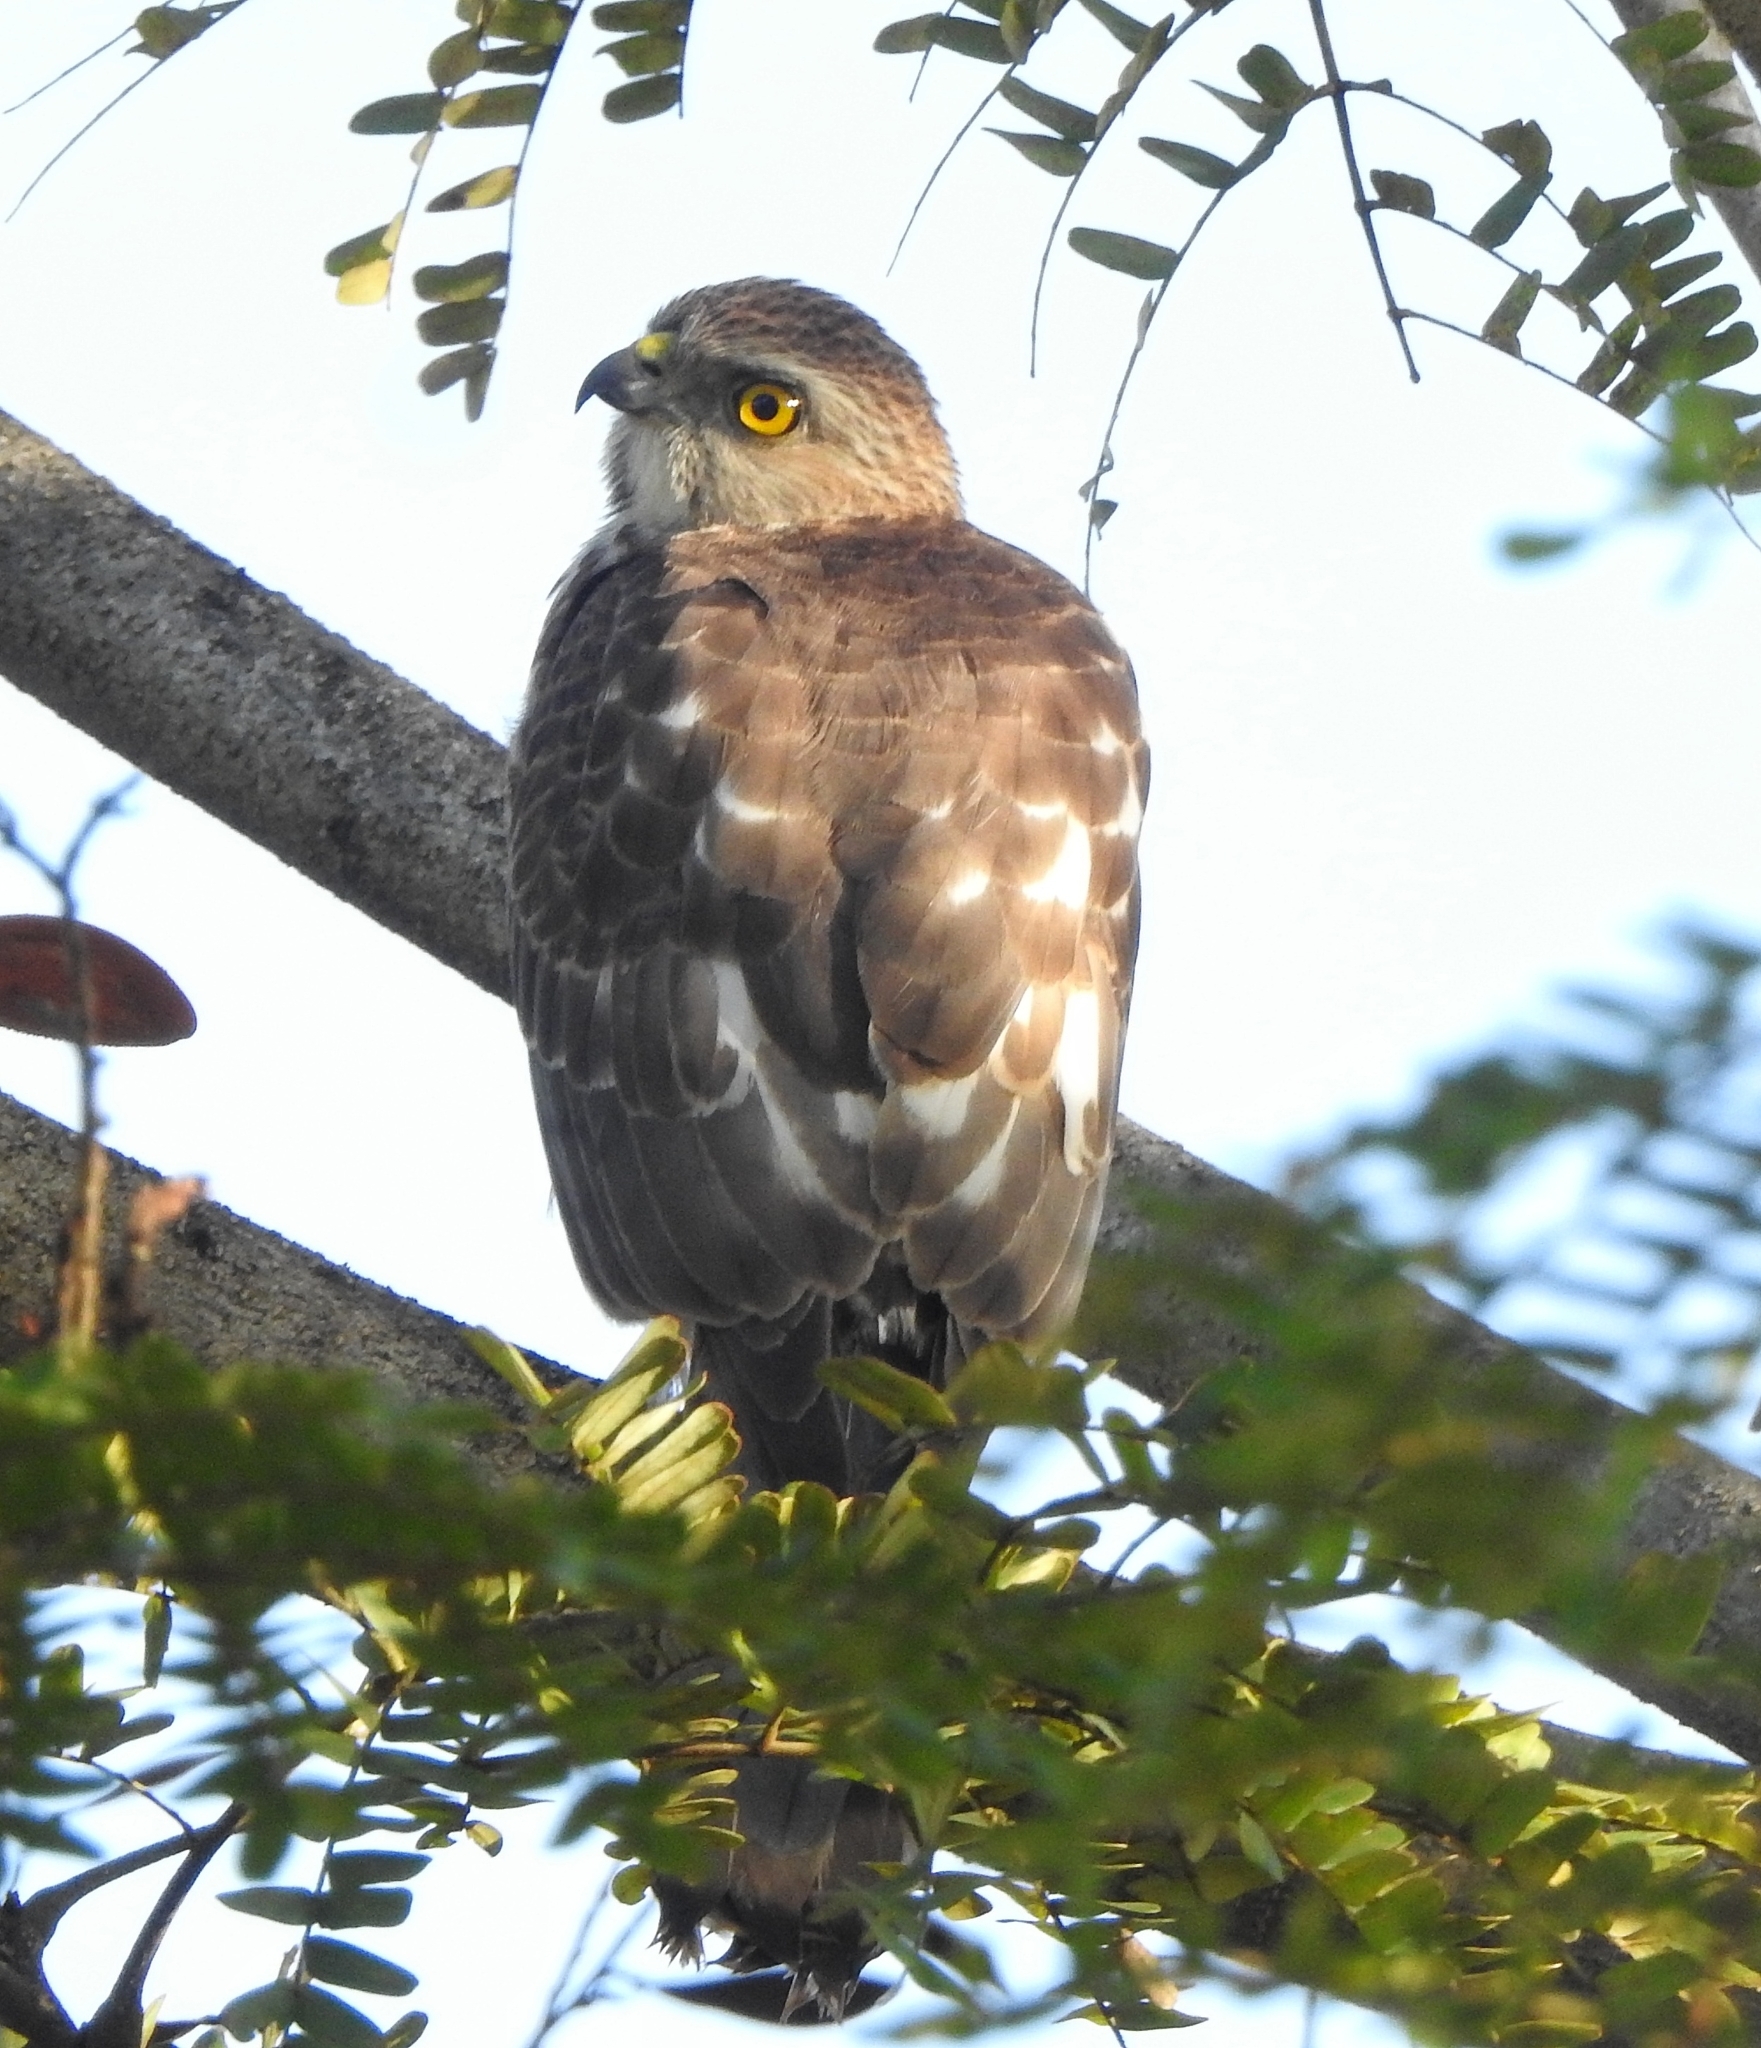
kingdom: Animalia
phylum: Chordata
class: Aves
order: Accipitriformes
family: Accipitridae
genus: Accipiter
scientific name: Accipiter badius
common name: Shikra
